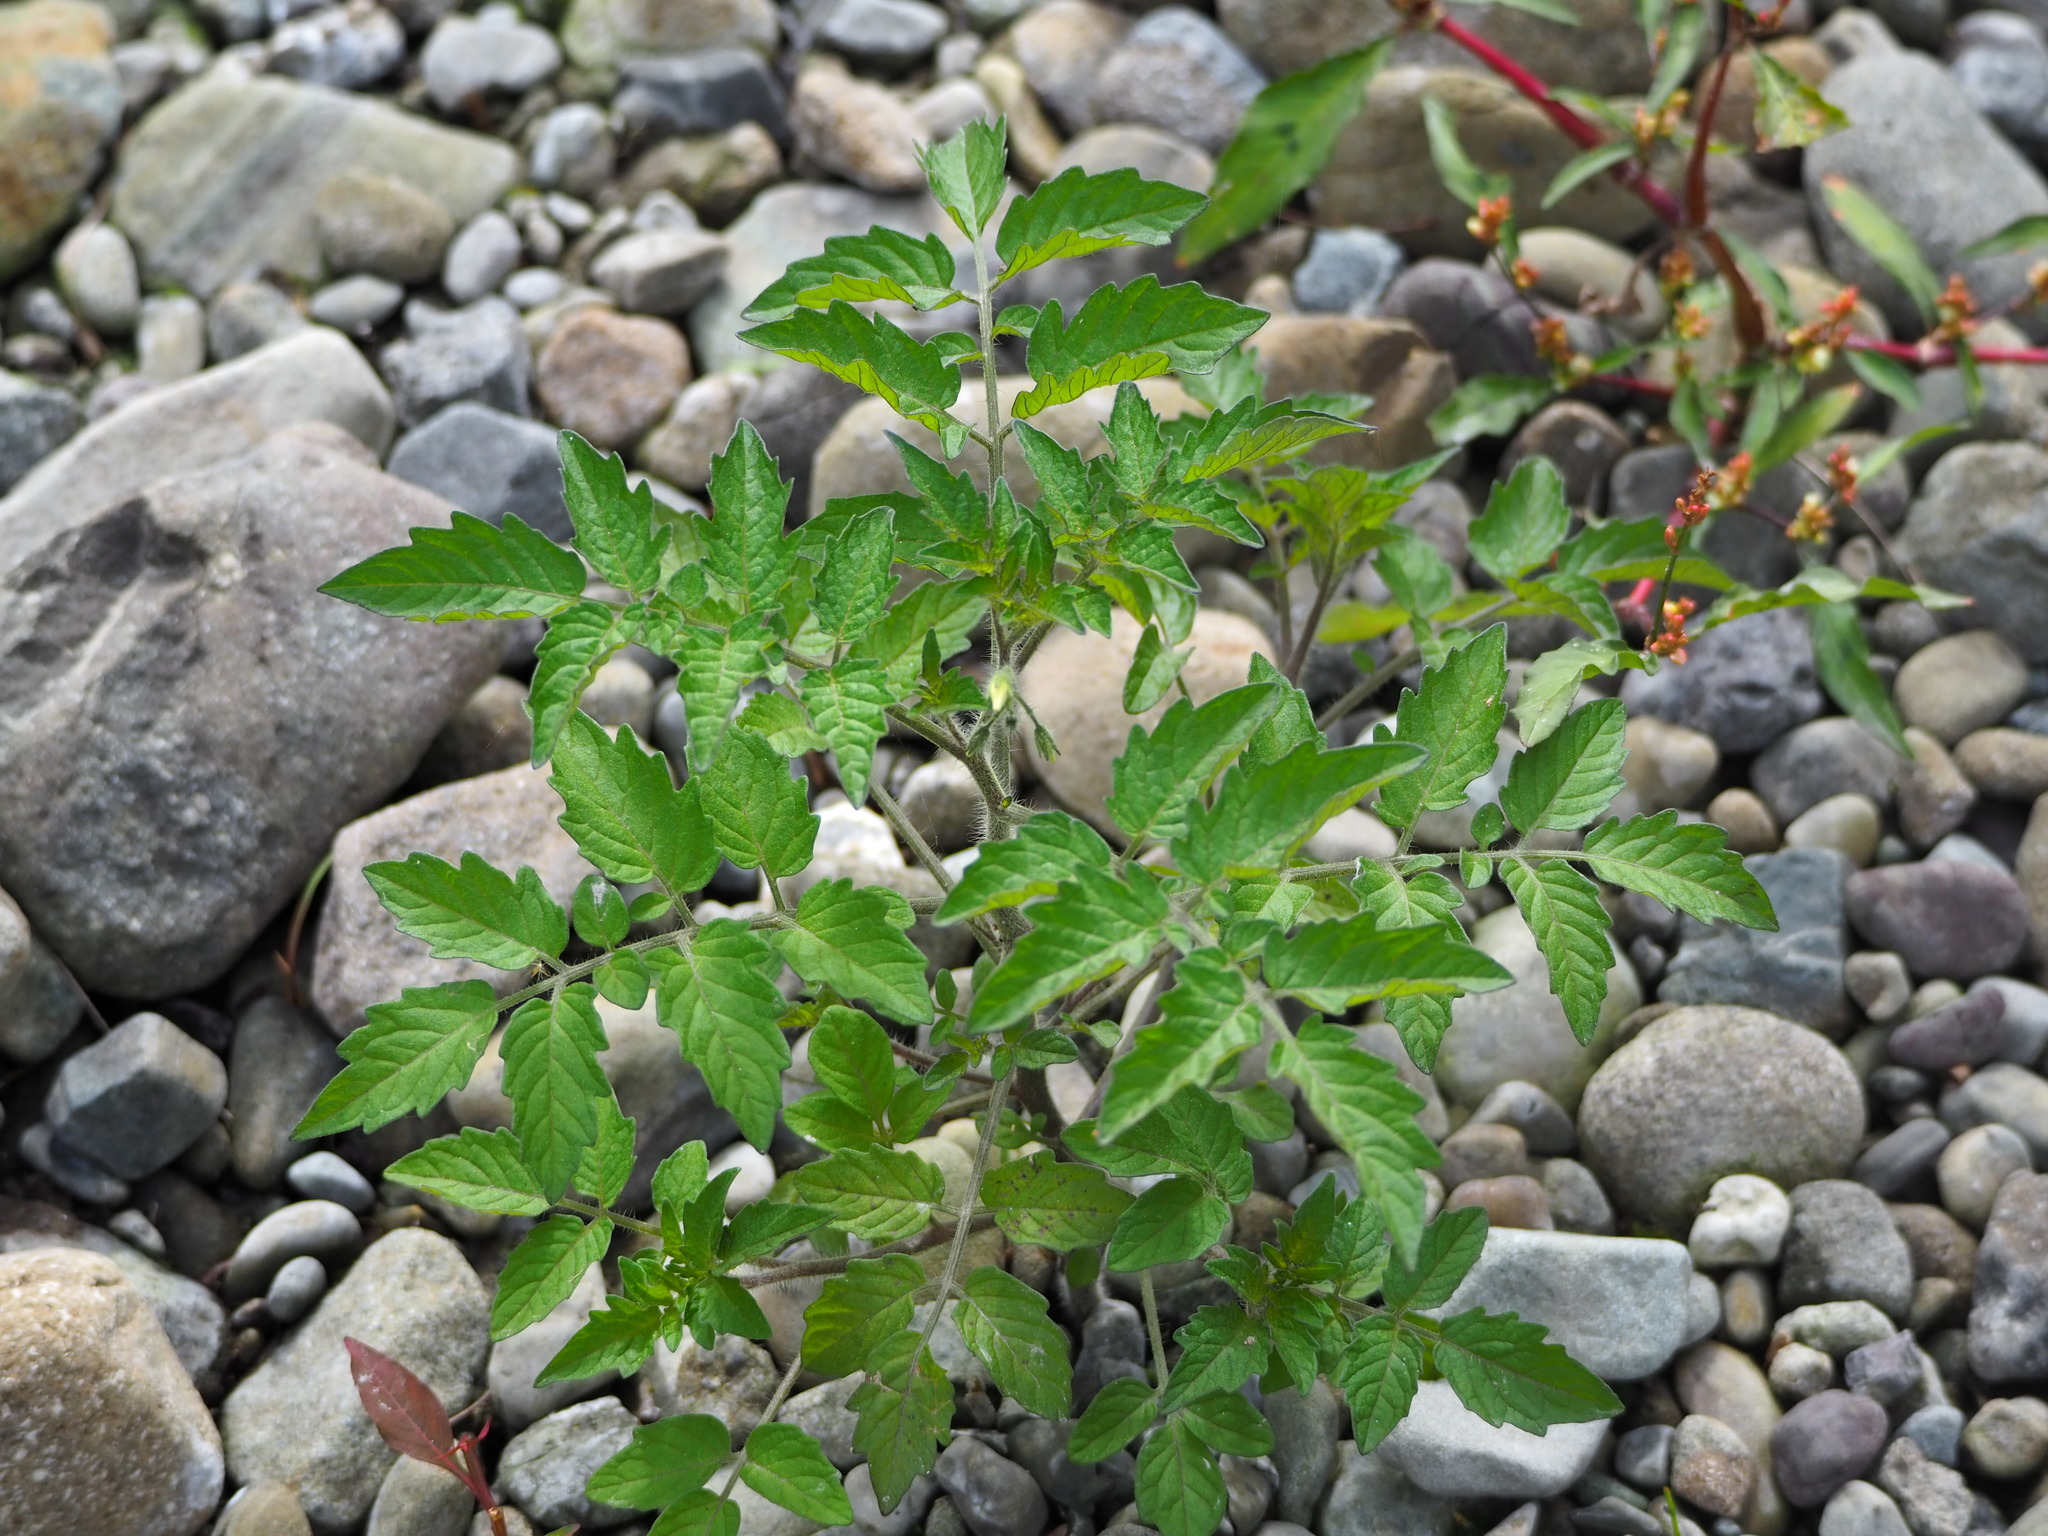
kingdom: Plantae
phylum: Tracheophyta
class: Magnoliopsida
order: Solanales
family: Solanaceae
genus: Solanum
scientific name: Solanum lycopersicum
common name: Garden tomato
